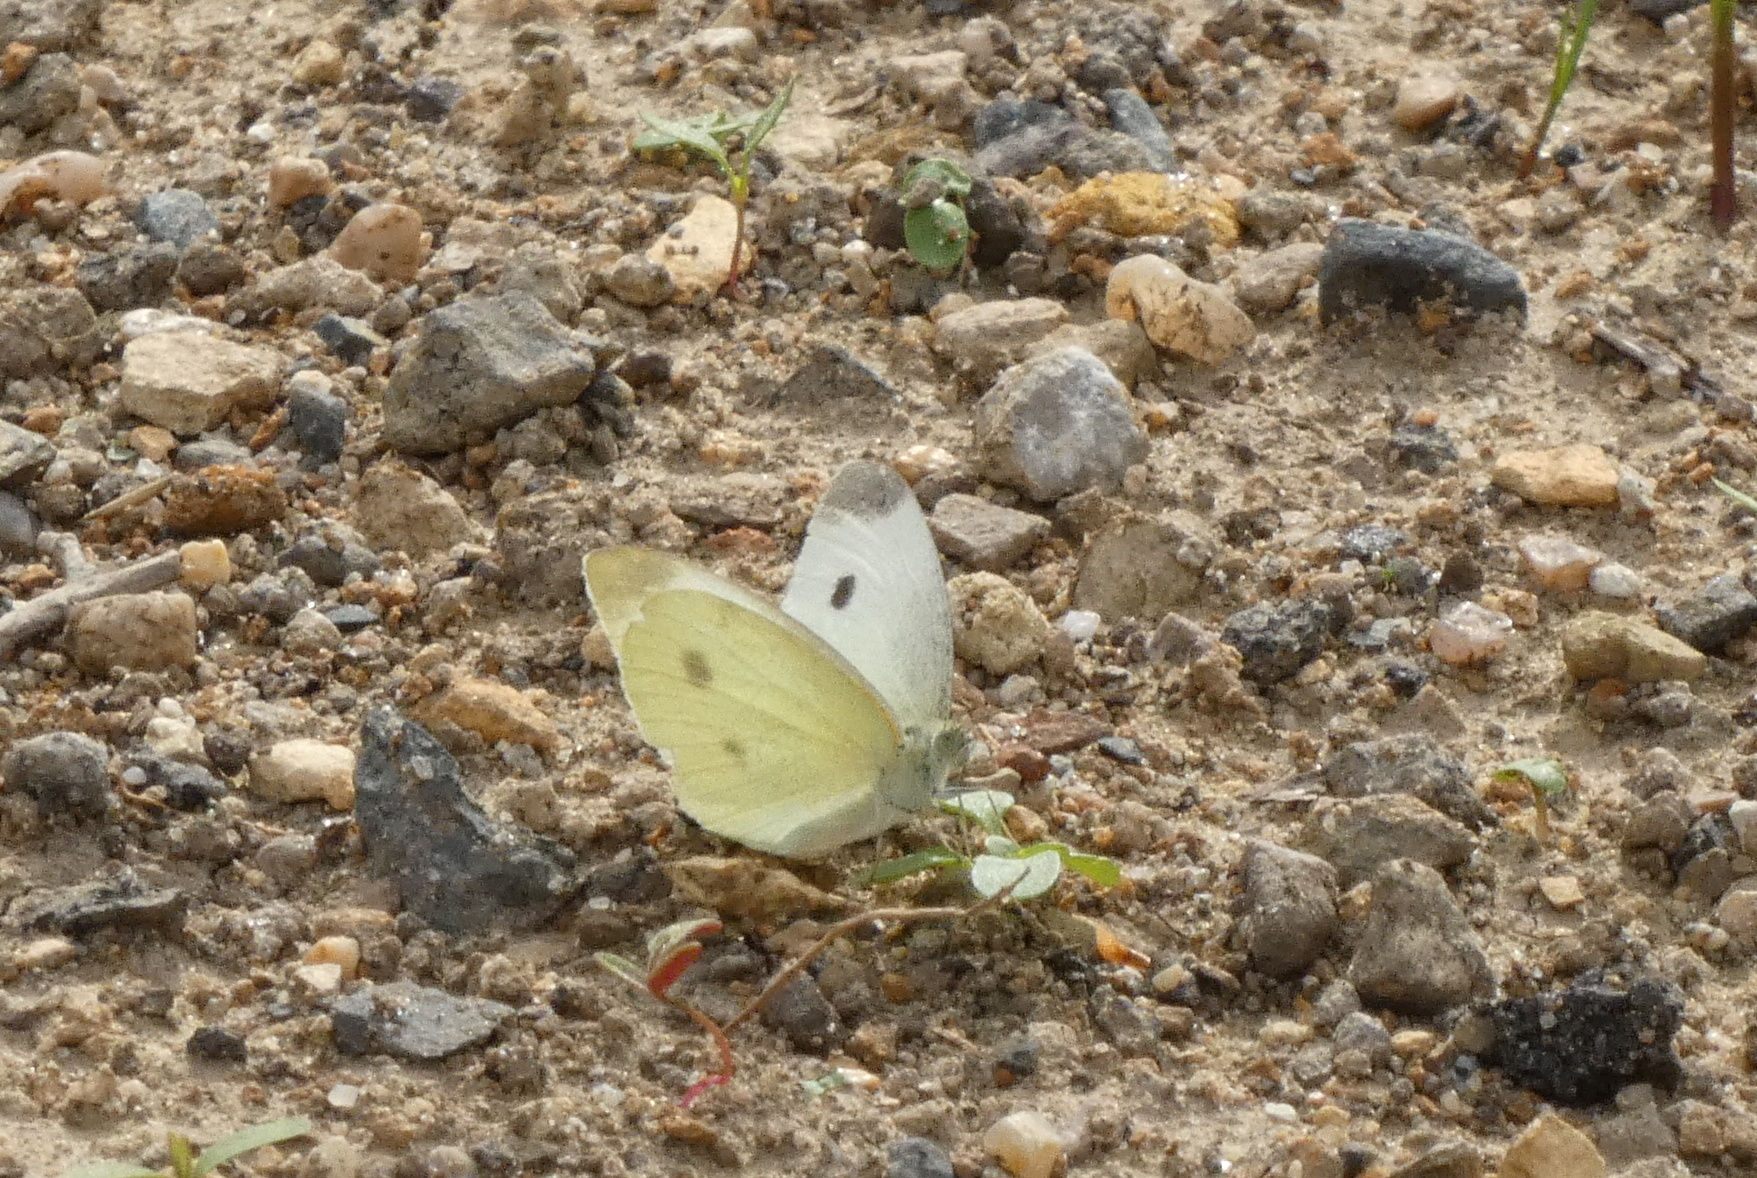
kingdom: Animalia
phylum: Arthropoda
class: Insecta
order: Lepidoptera
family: Pieridae
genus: Pieris
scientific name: Pieris rapae
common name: Small white
